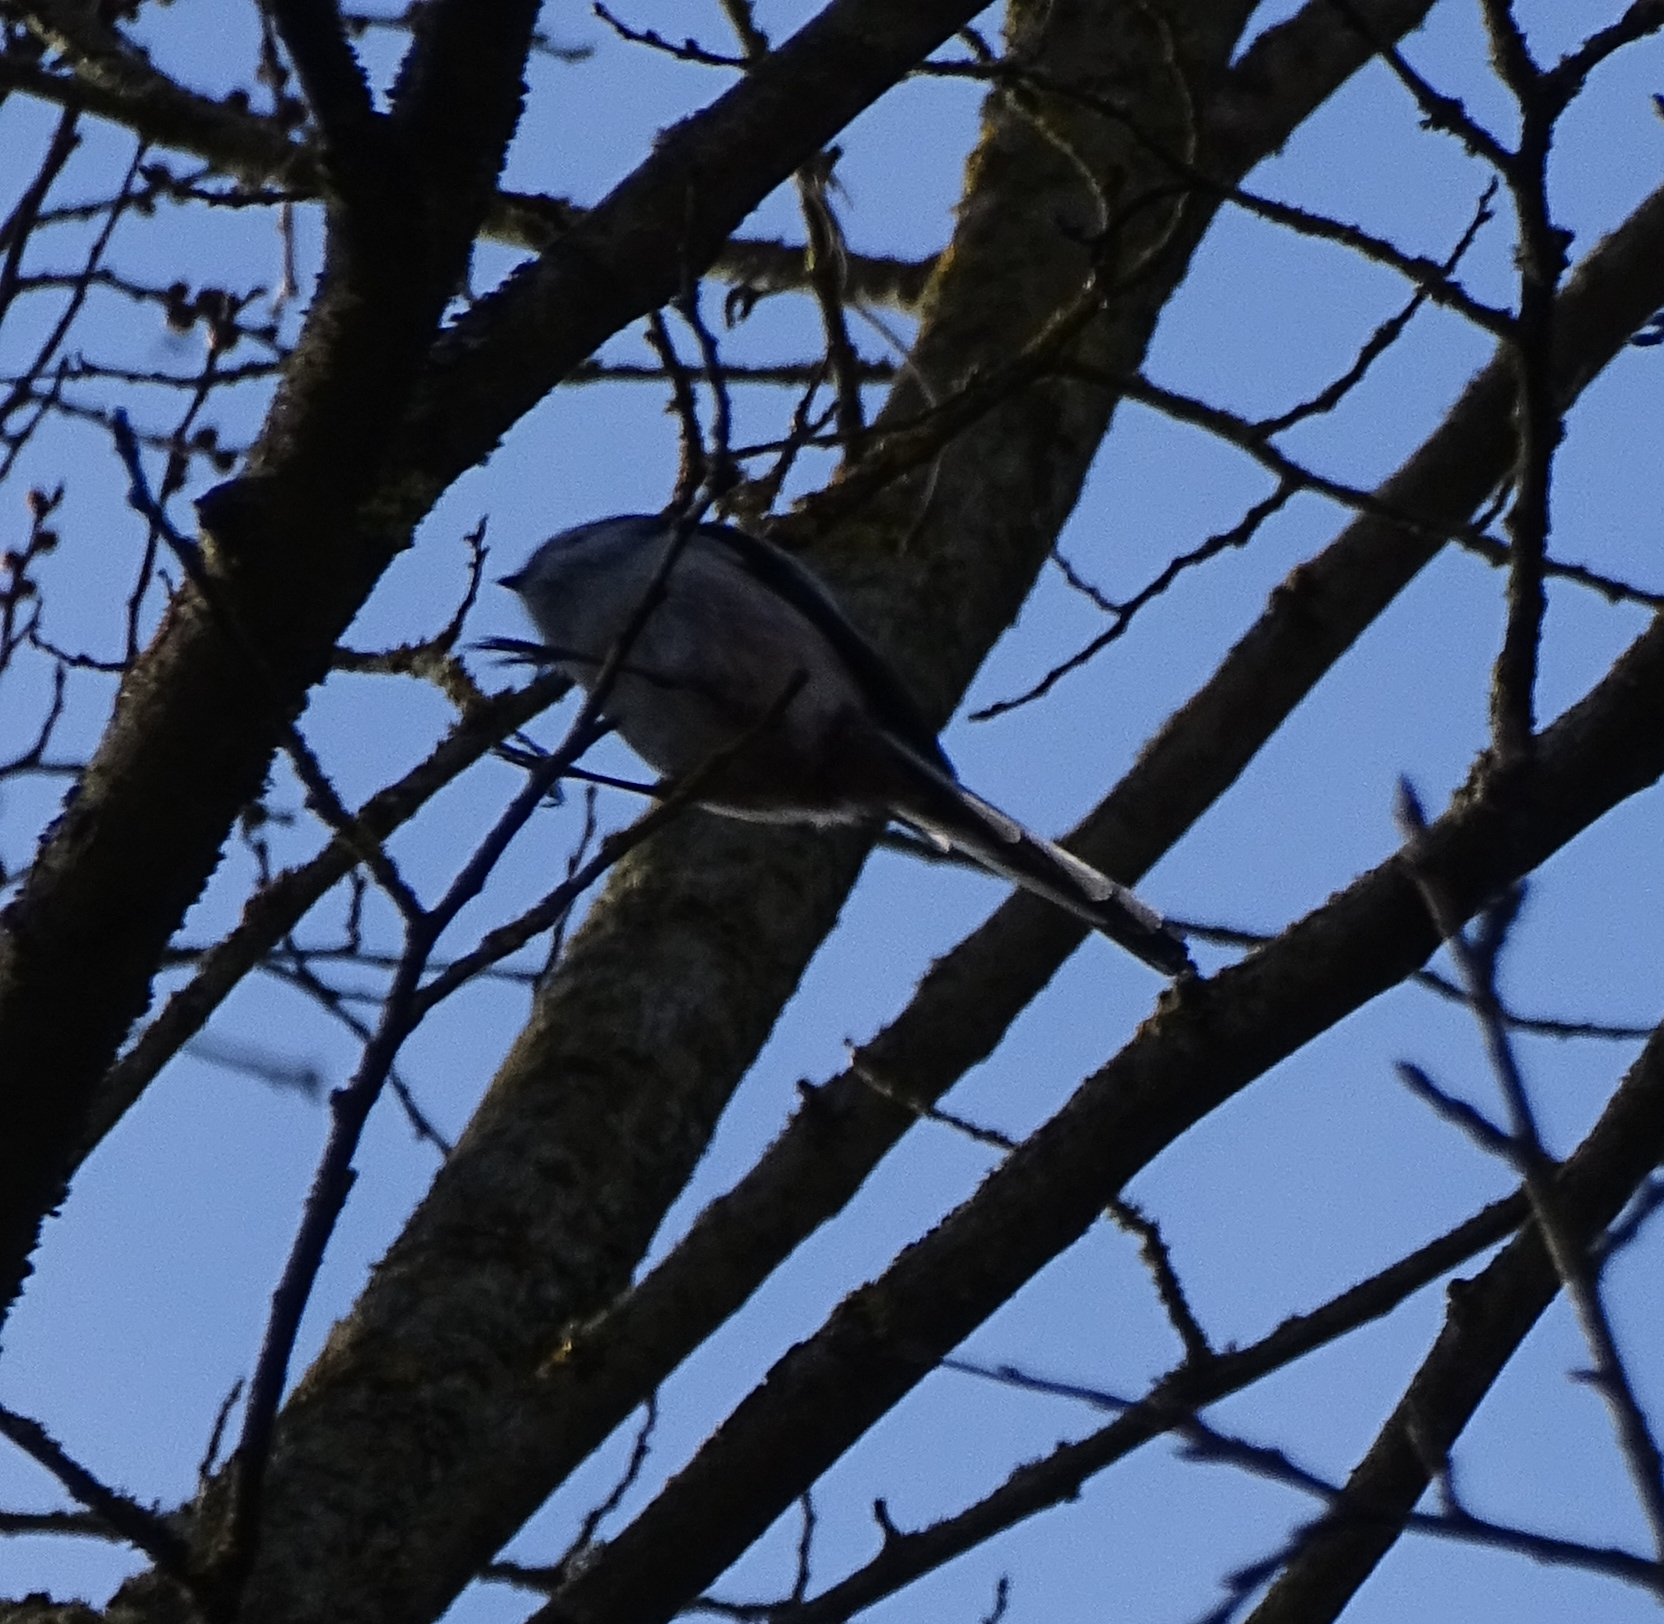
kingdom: Animalia
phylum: Chordata
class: Aves
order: Passeriformes
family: Aegithalidae
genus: Aegithalos
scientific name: Aegithalos caudatus
